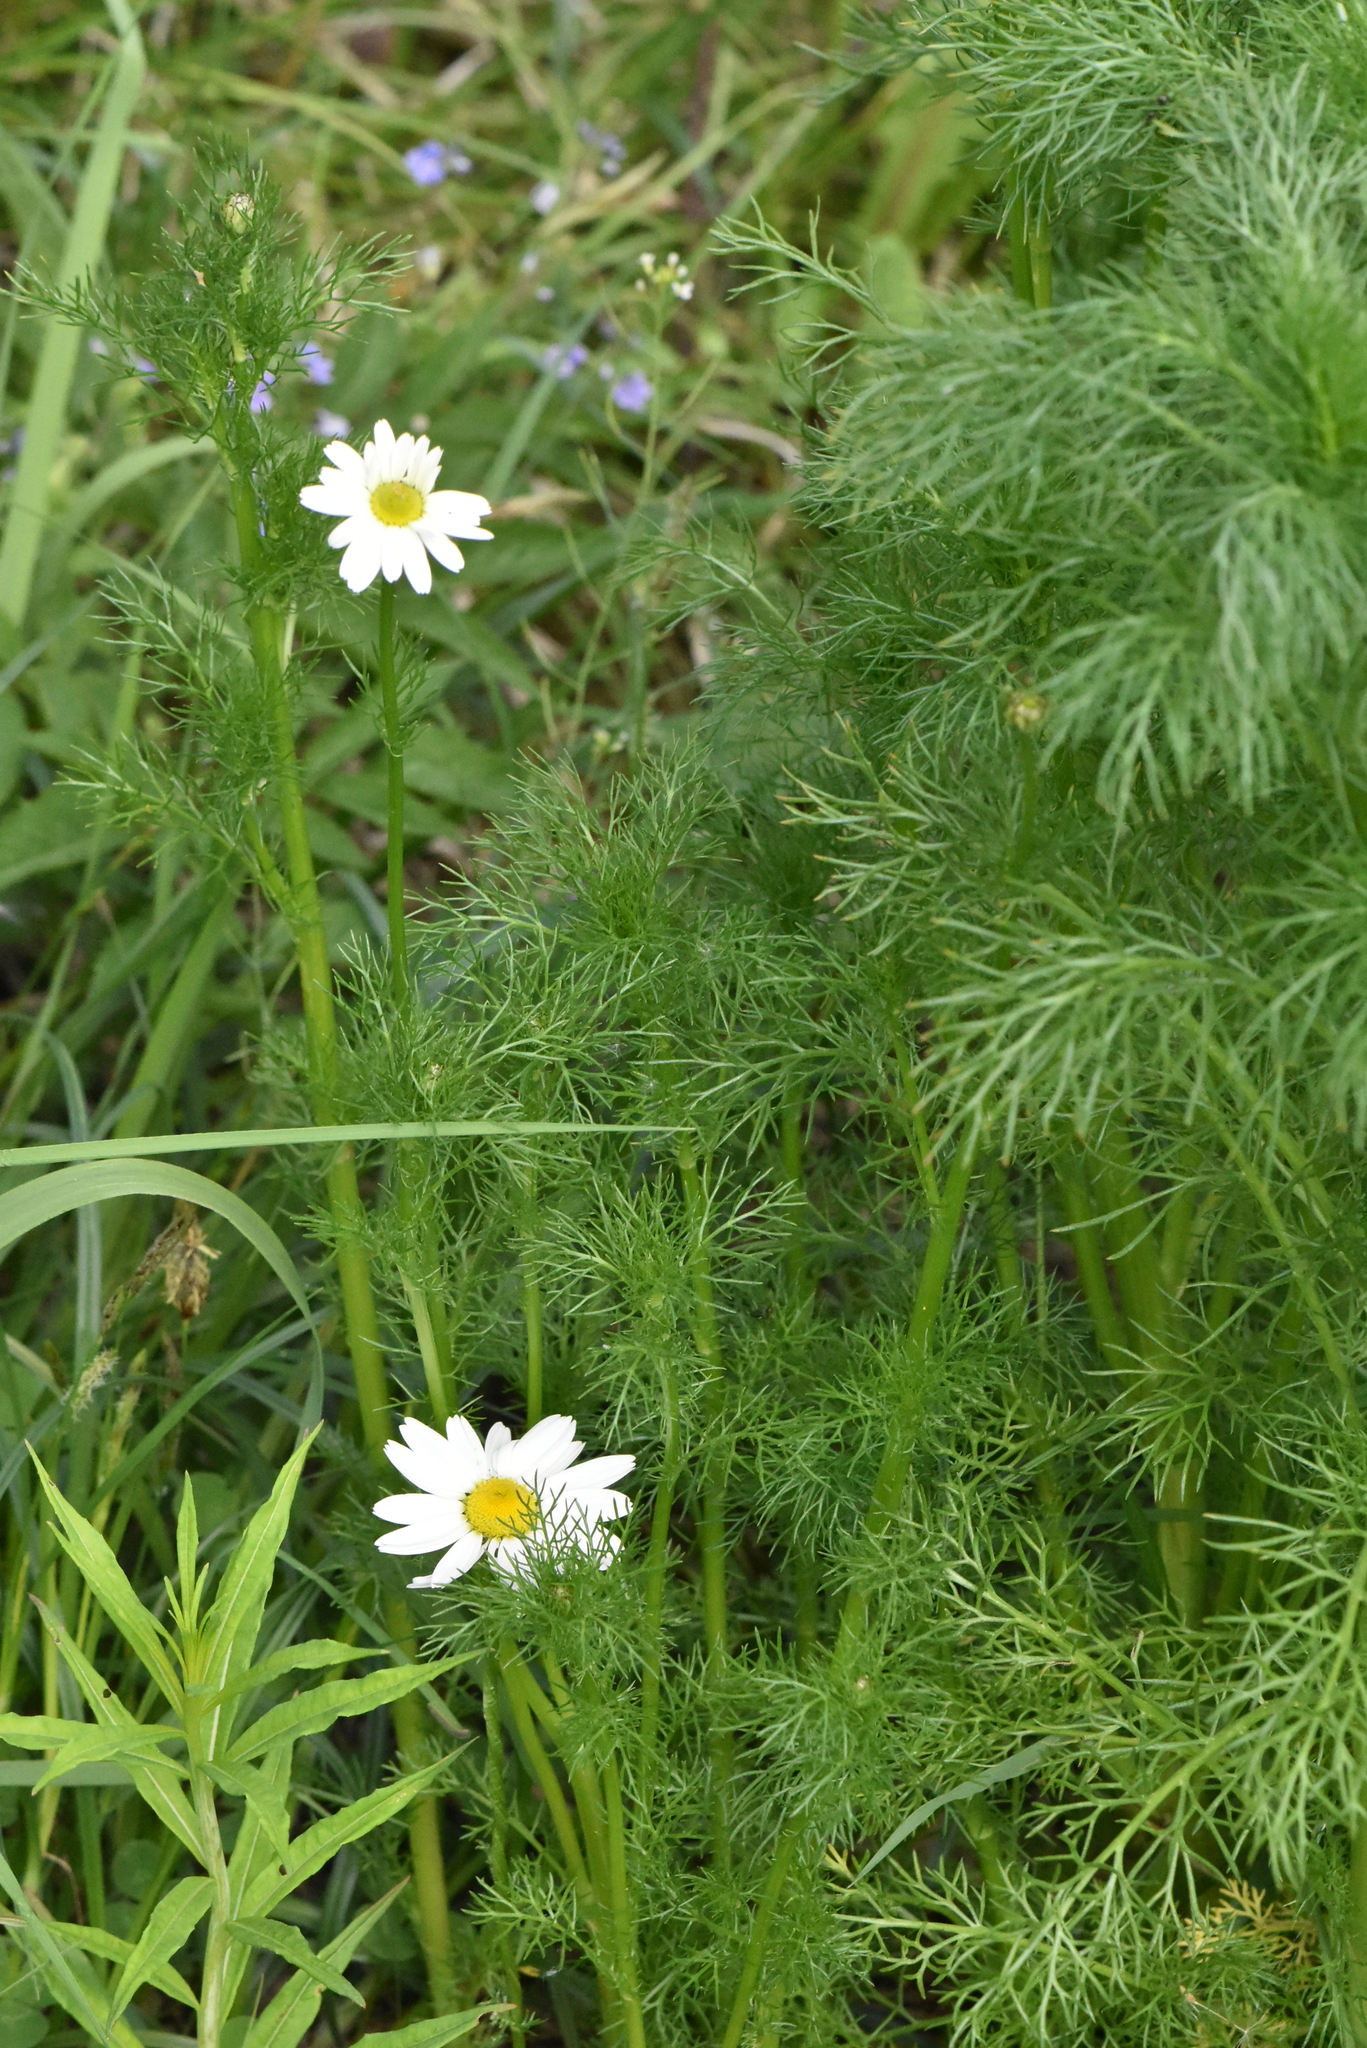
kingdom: Plantae
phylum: Tracheophyta
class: Magnoliopsida
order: Asterales
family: Asteraceae
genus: Tripleurospermum
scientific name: Tripleurospermum inodorum
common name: Scentless mayweed
